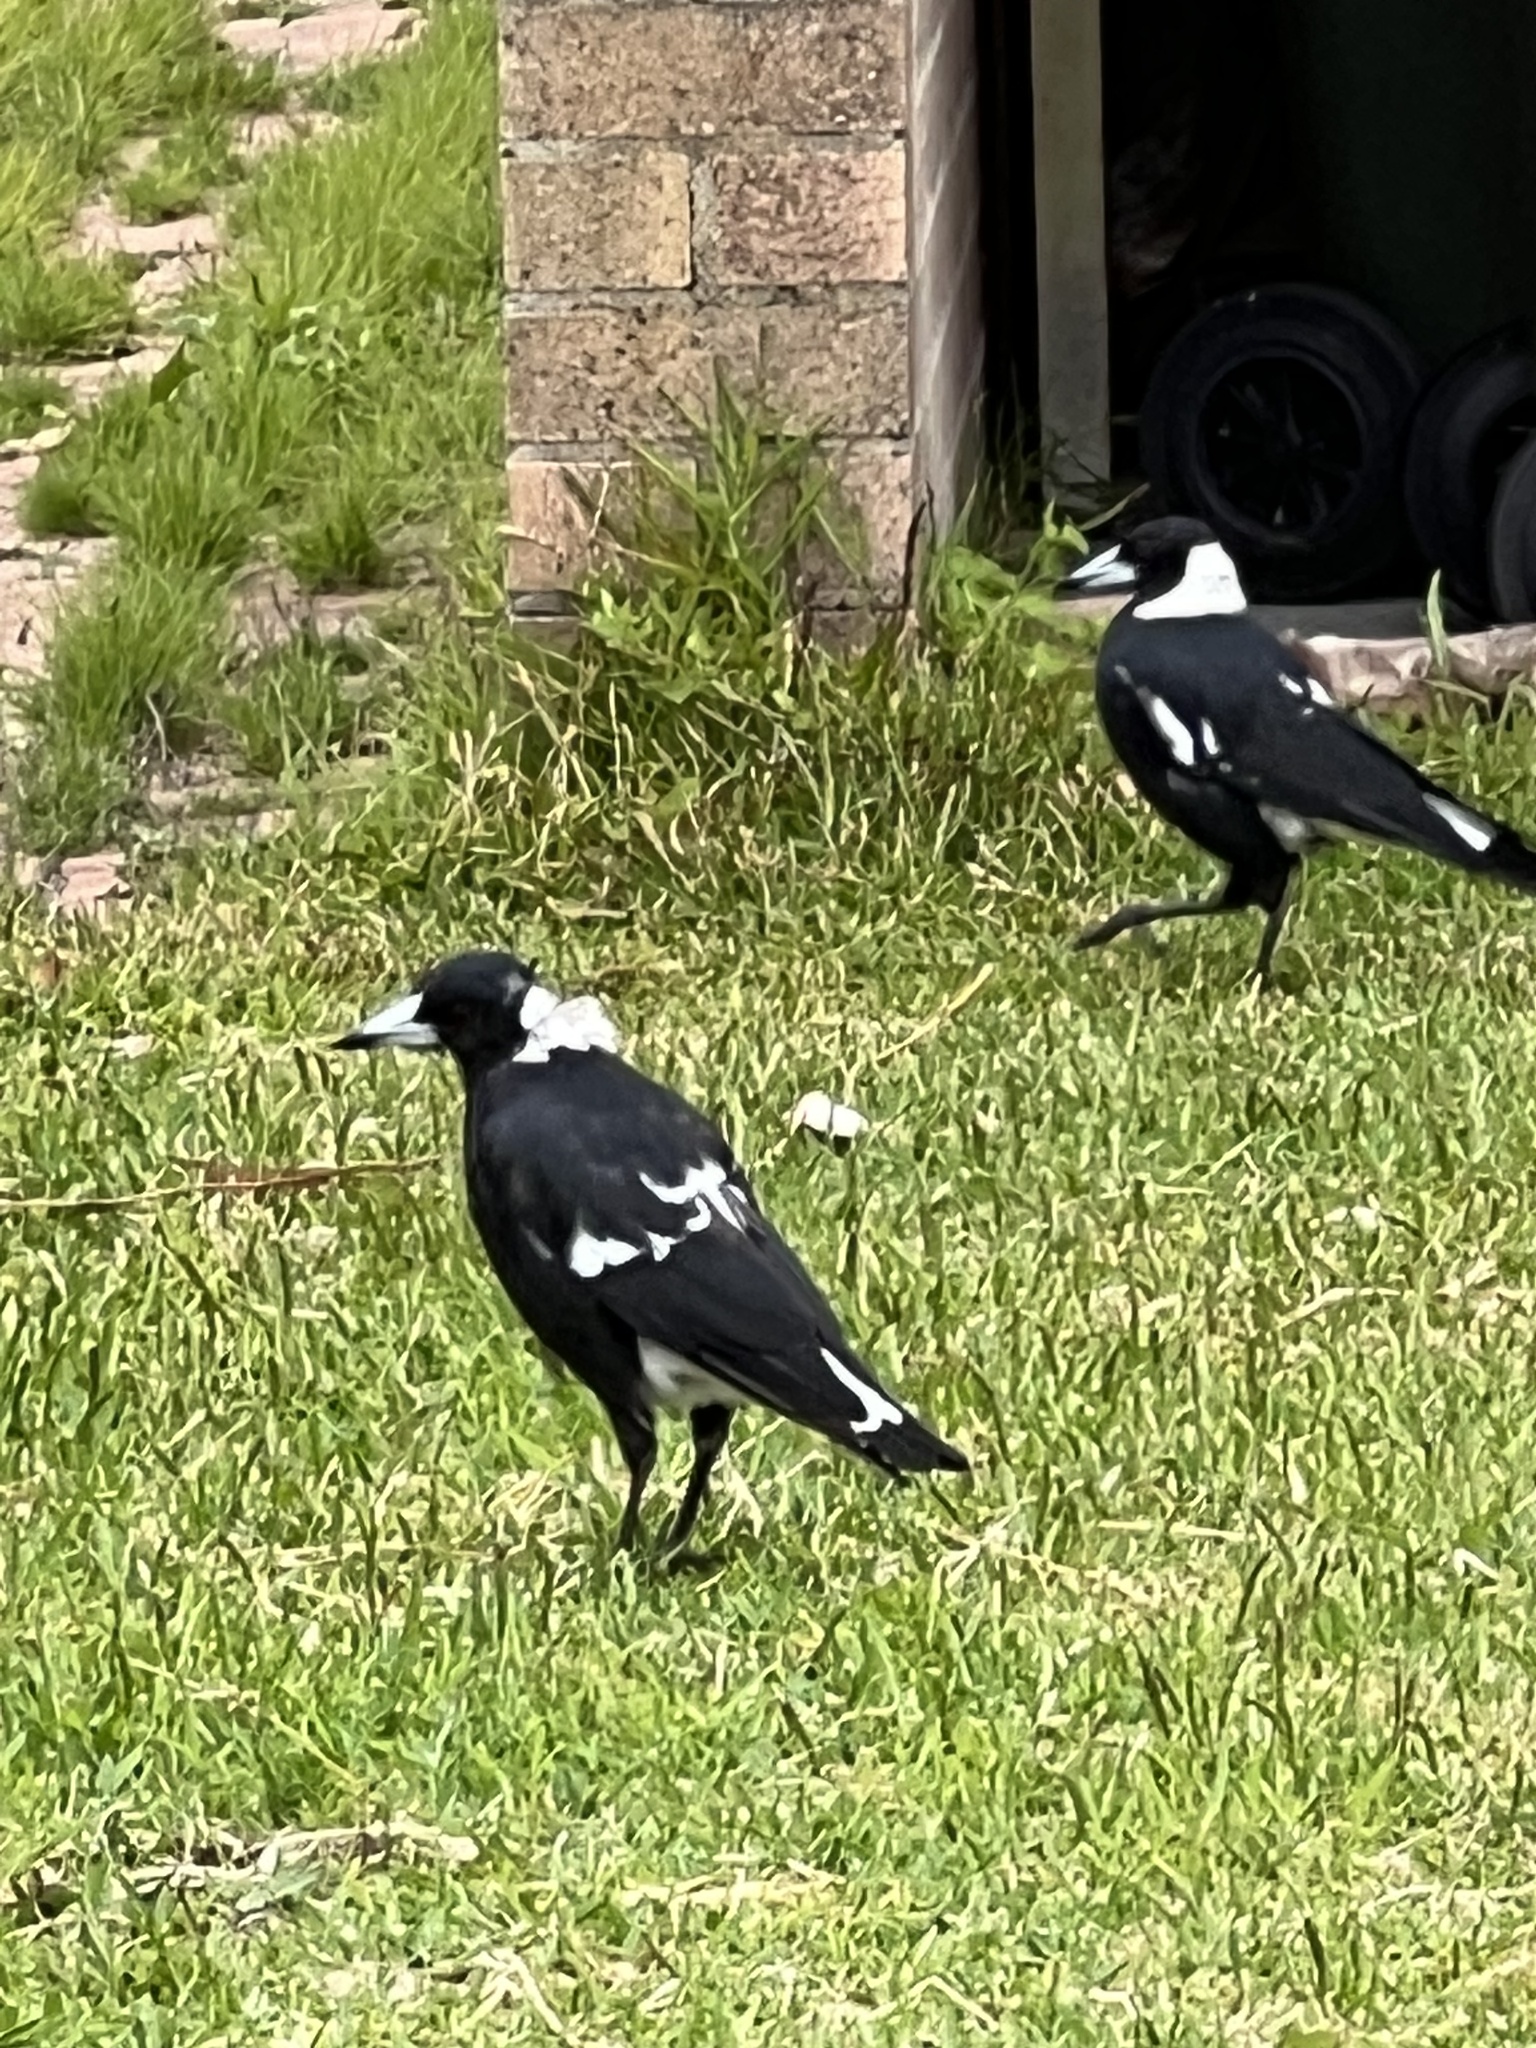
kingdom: Animalia
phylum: Chordata
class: Aves
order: Passeriformes
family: Cracticidae
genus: Gymnorhina
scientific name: Gymnorhina tibicen
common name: Australian magpie
